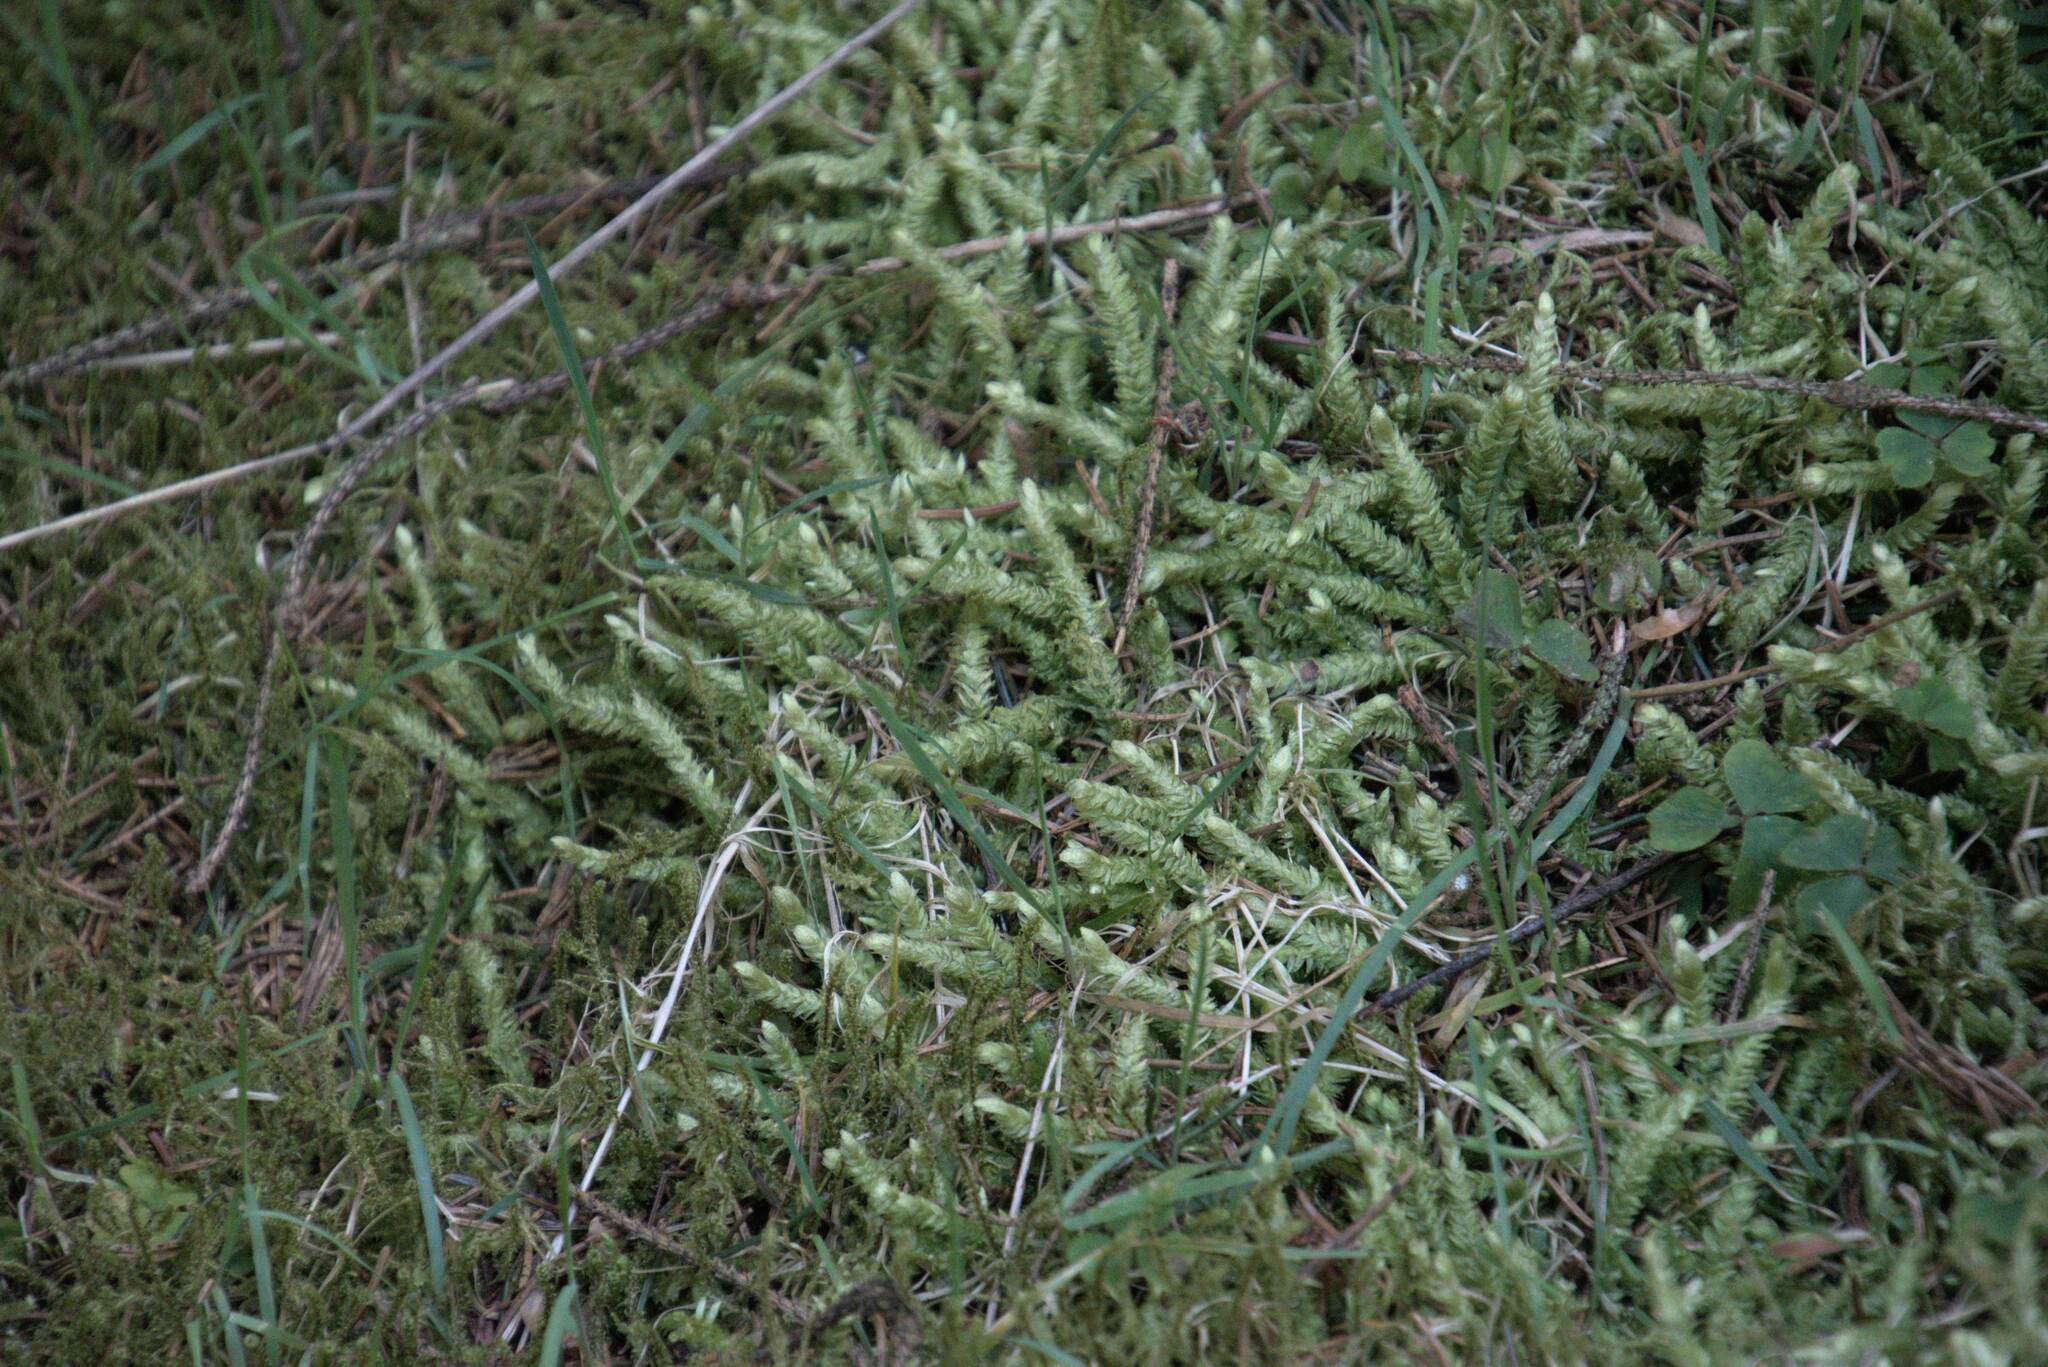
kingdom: Plantae
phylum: Bryophyta
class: Bryopsida
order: Hypnales
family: Plagiotheciaceae
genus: Plagiothecium
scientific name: Plagiothecium undulatum
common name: Waved silk-moss
